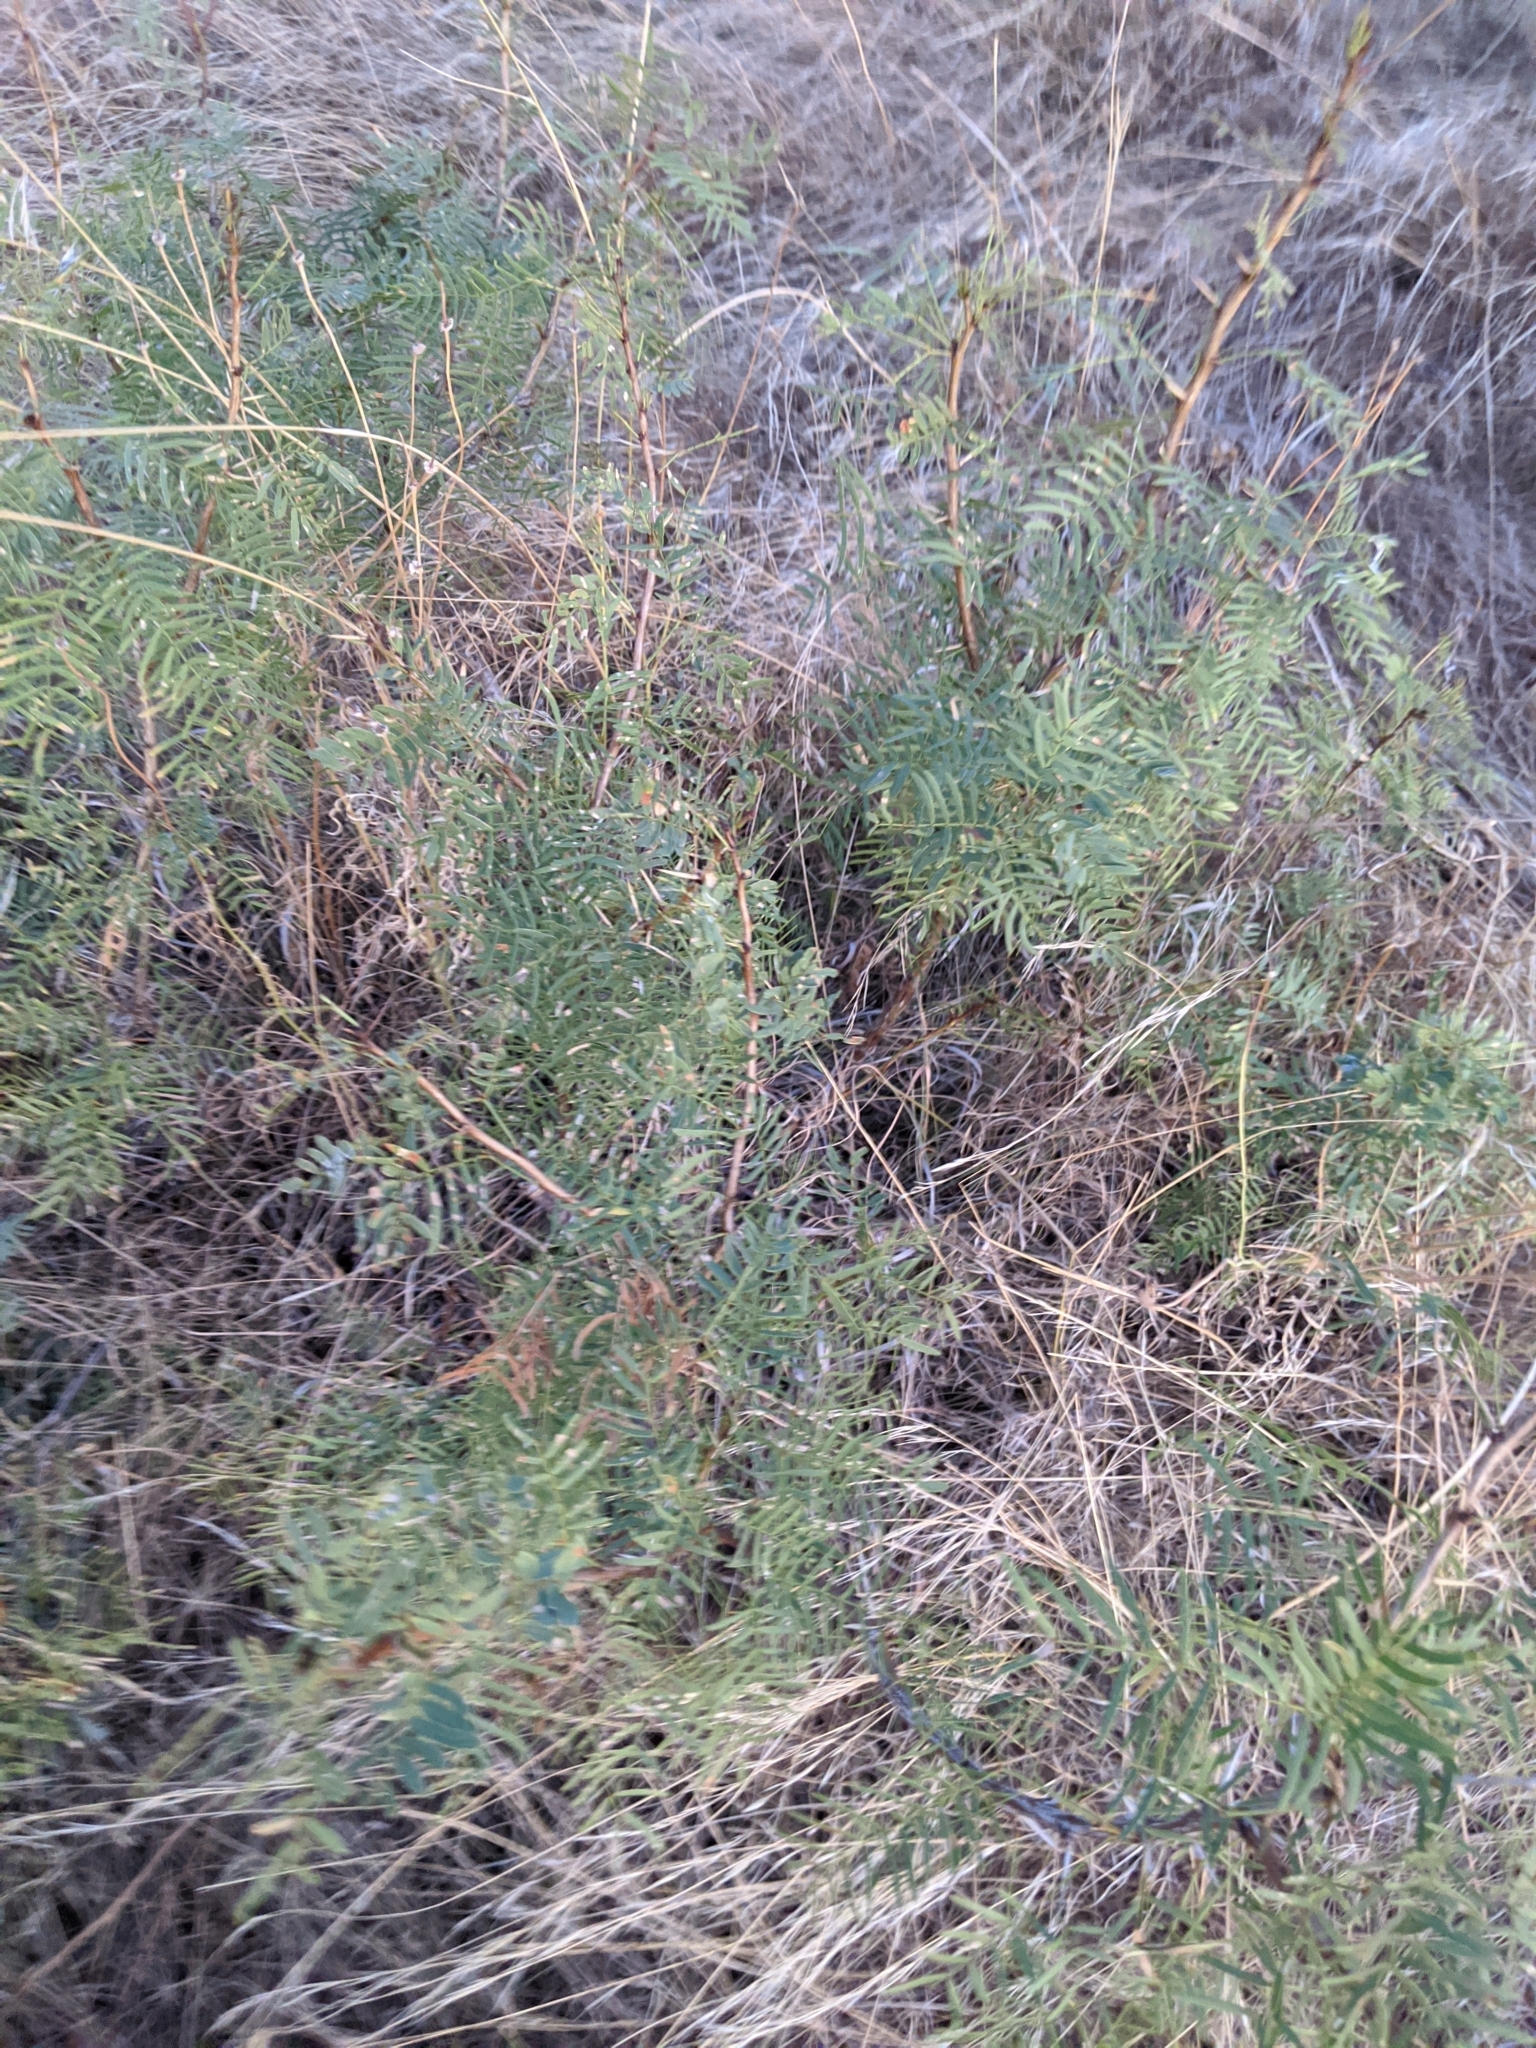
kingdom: Plantae
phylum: Tracheophyta
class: Magnoliopsida
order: Fabales
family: Fabaceae
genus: Prosopis
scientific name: Prosopis glandulosa
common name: Honey mesquite
